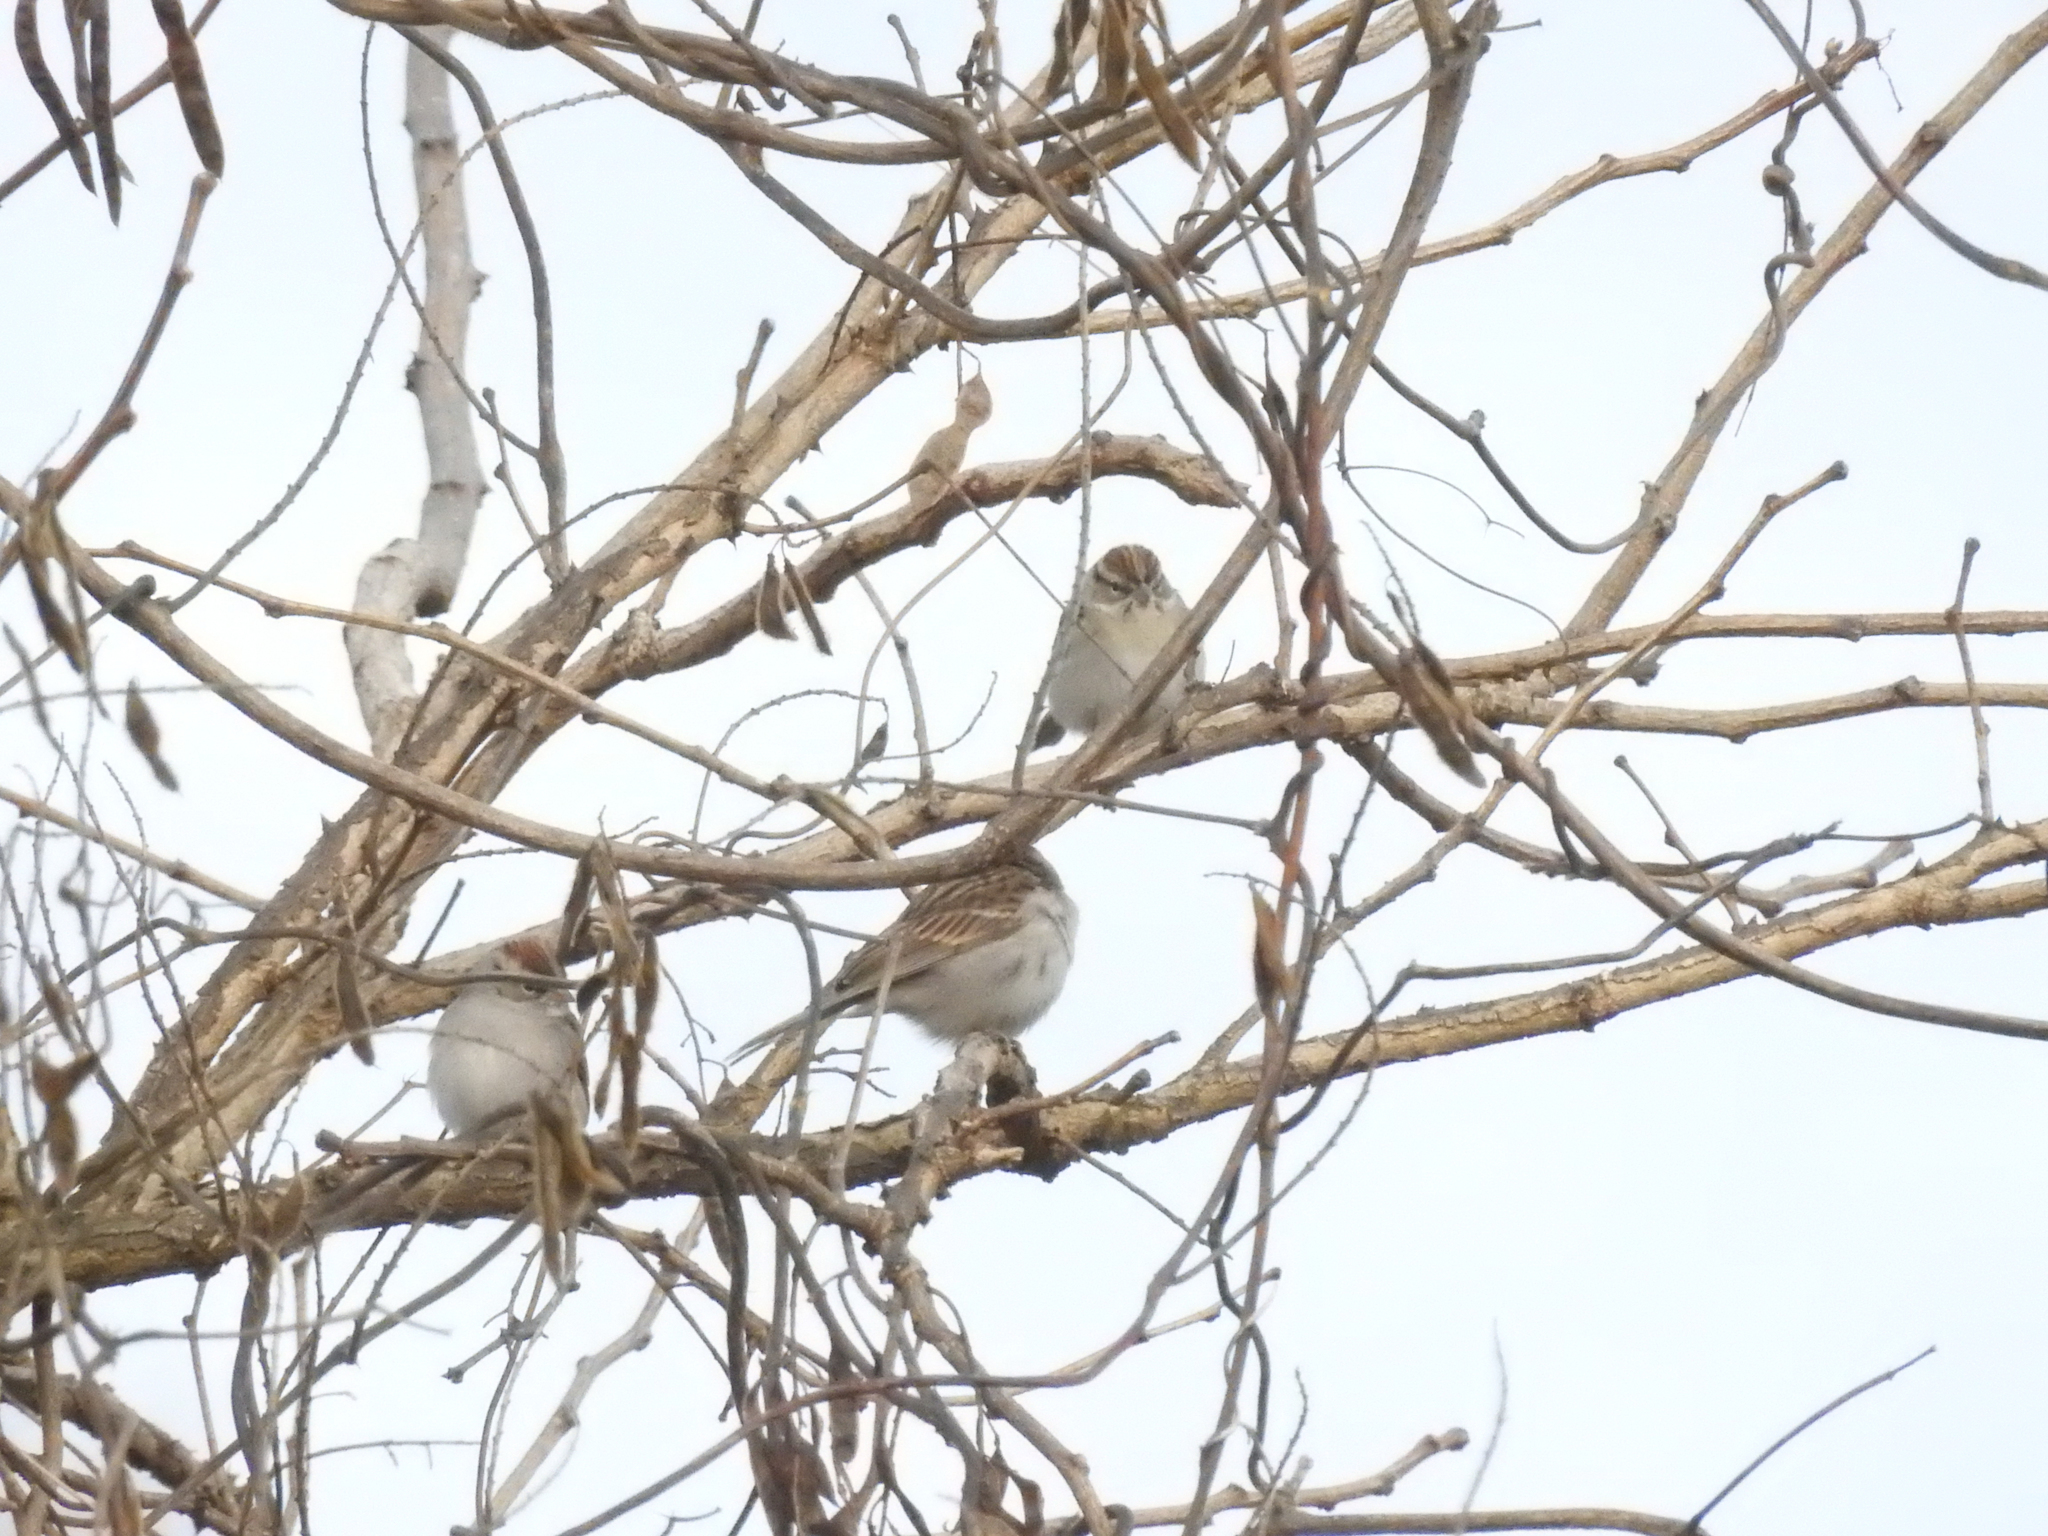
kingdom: Animalia
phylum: Chordata
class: Aves
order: Passeriformes
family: Passerellidae
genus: Spizella
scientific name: Spizella passerina
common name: Chipping sparrow
